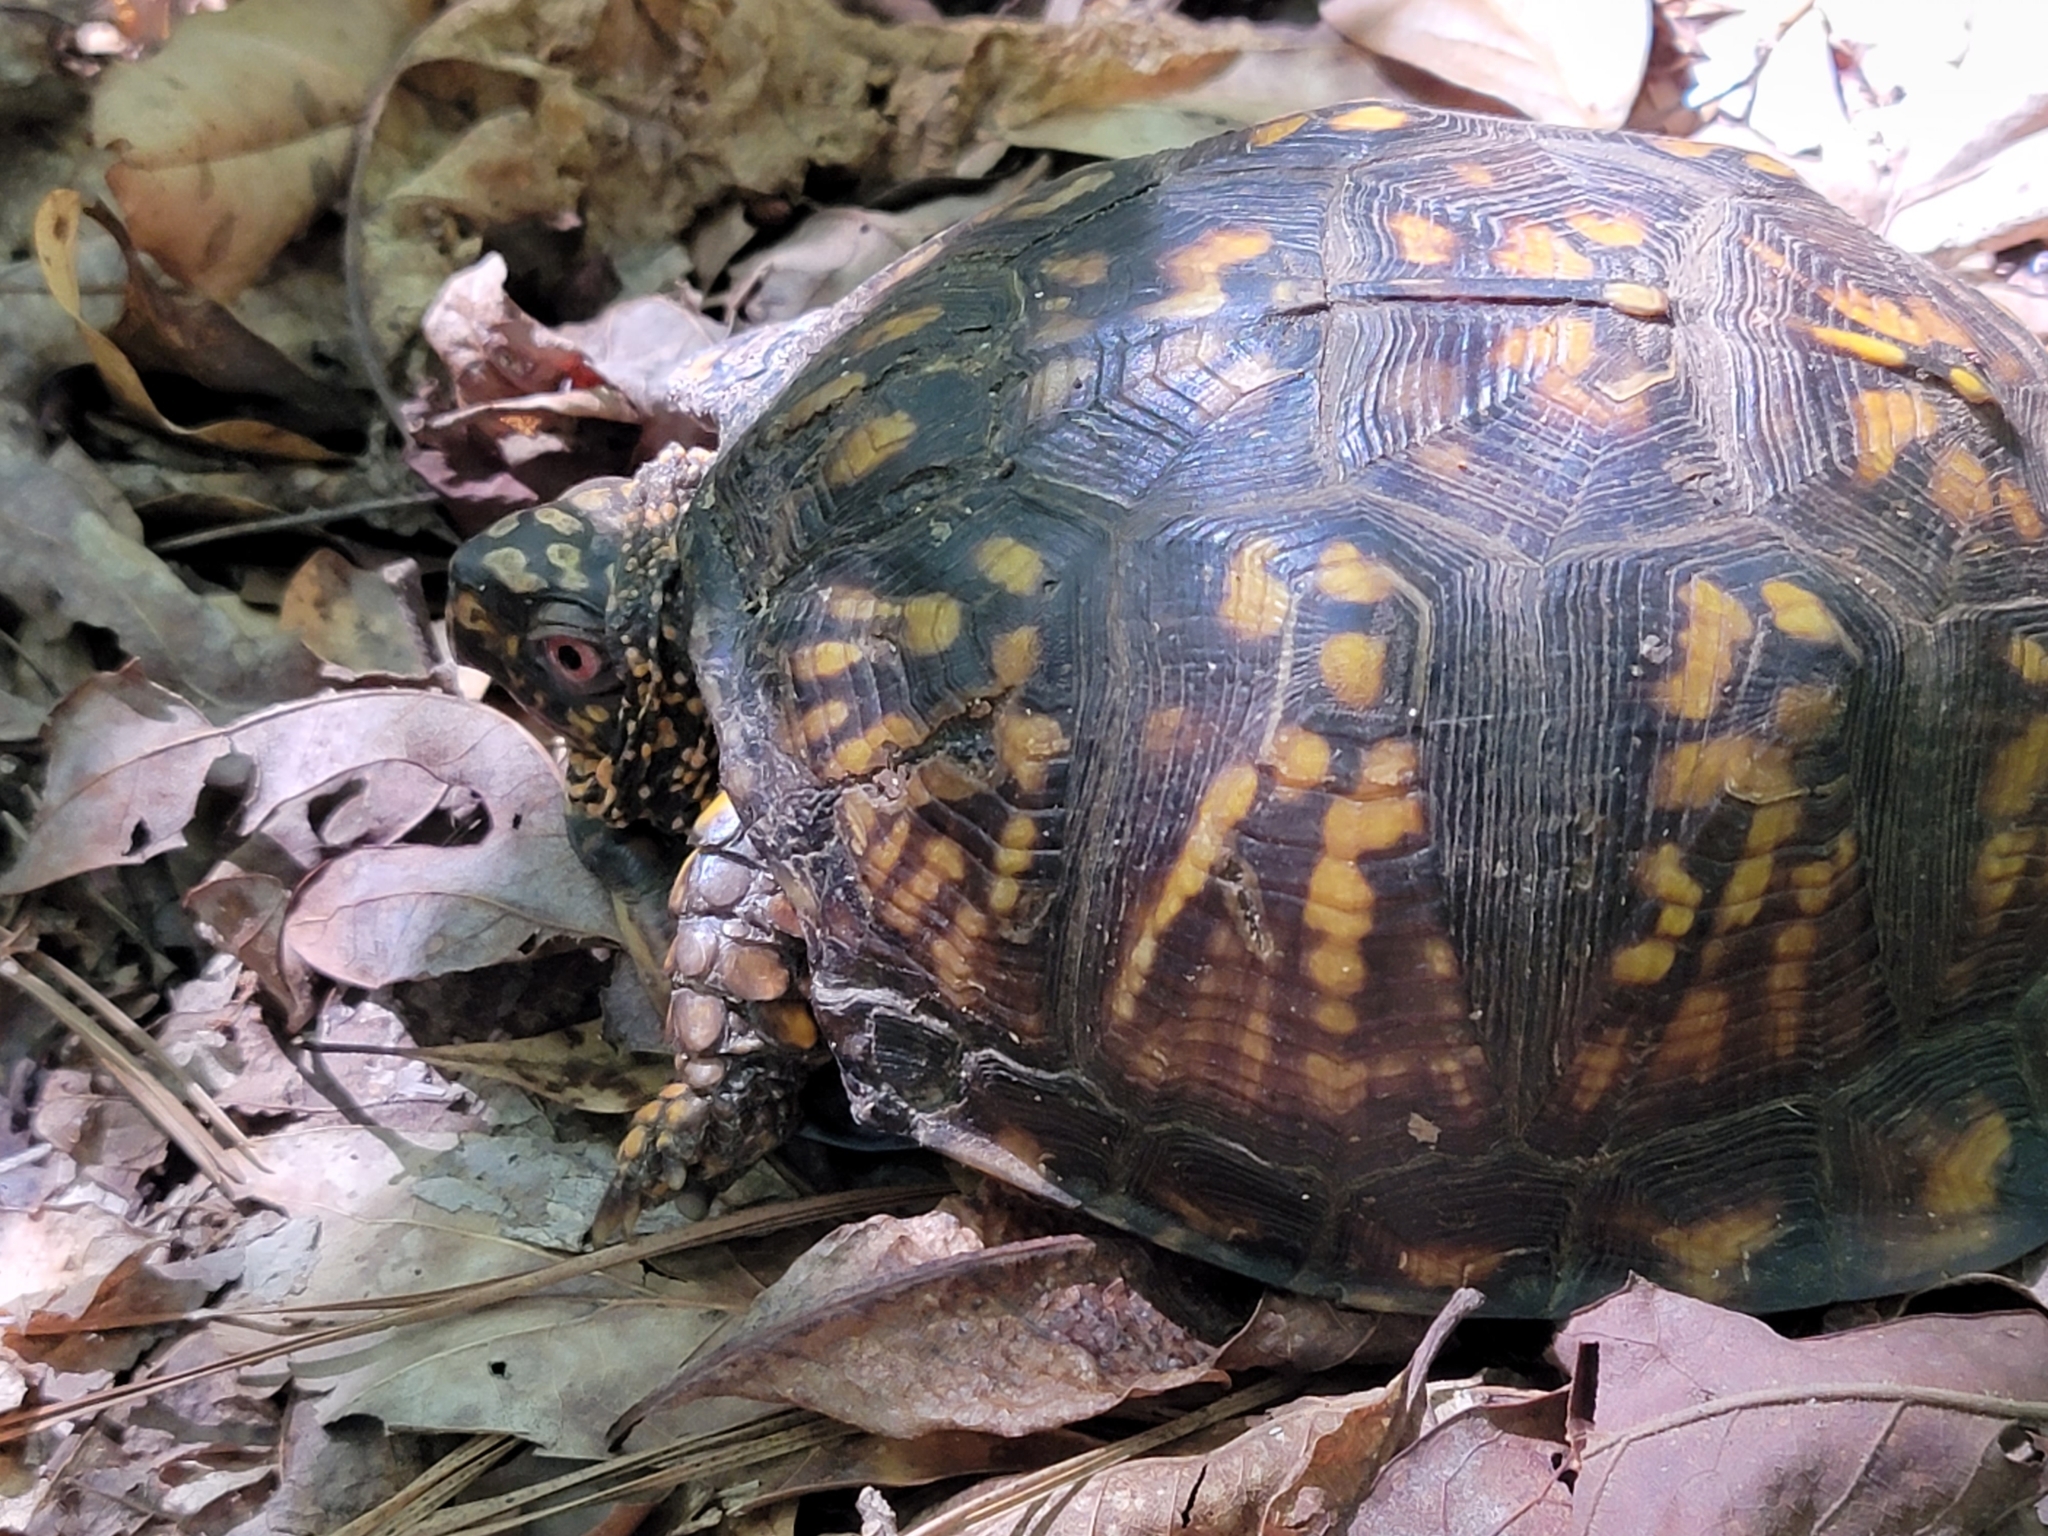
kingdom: Animalia
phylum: Chordata
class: Testudines
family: Emydidae
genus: Terrapene
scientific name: Terrapene carolina
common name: Common box turtle
